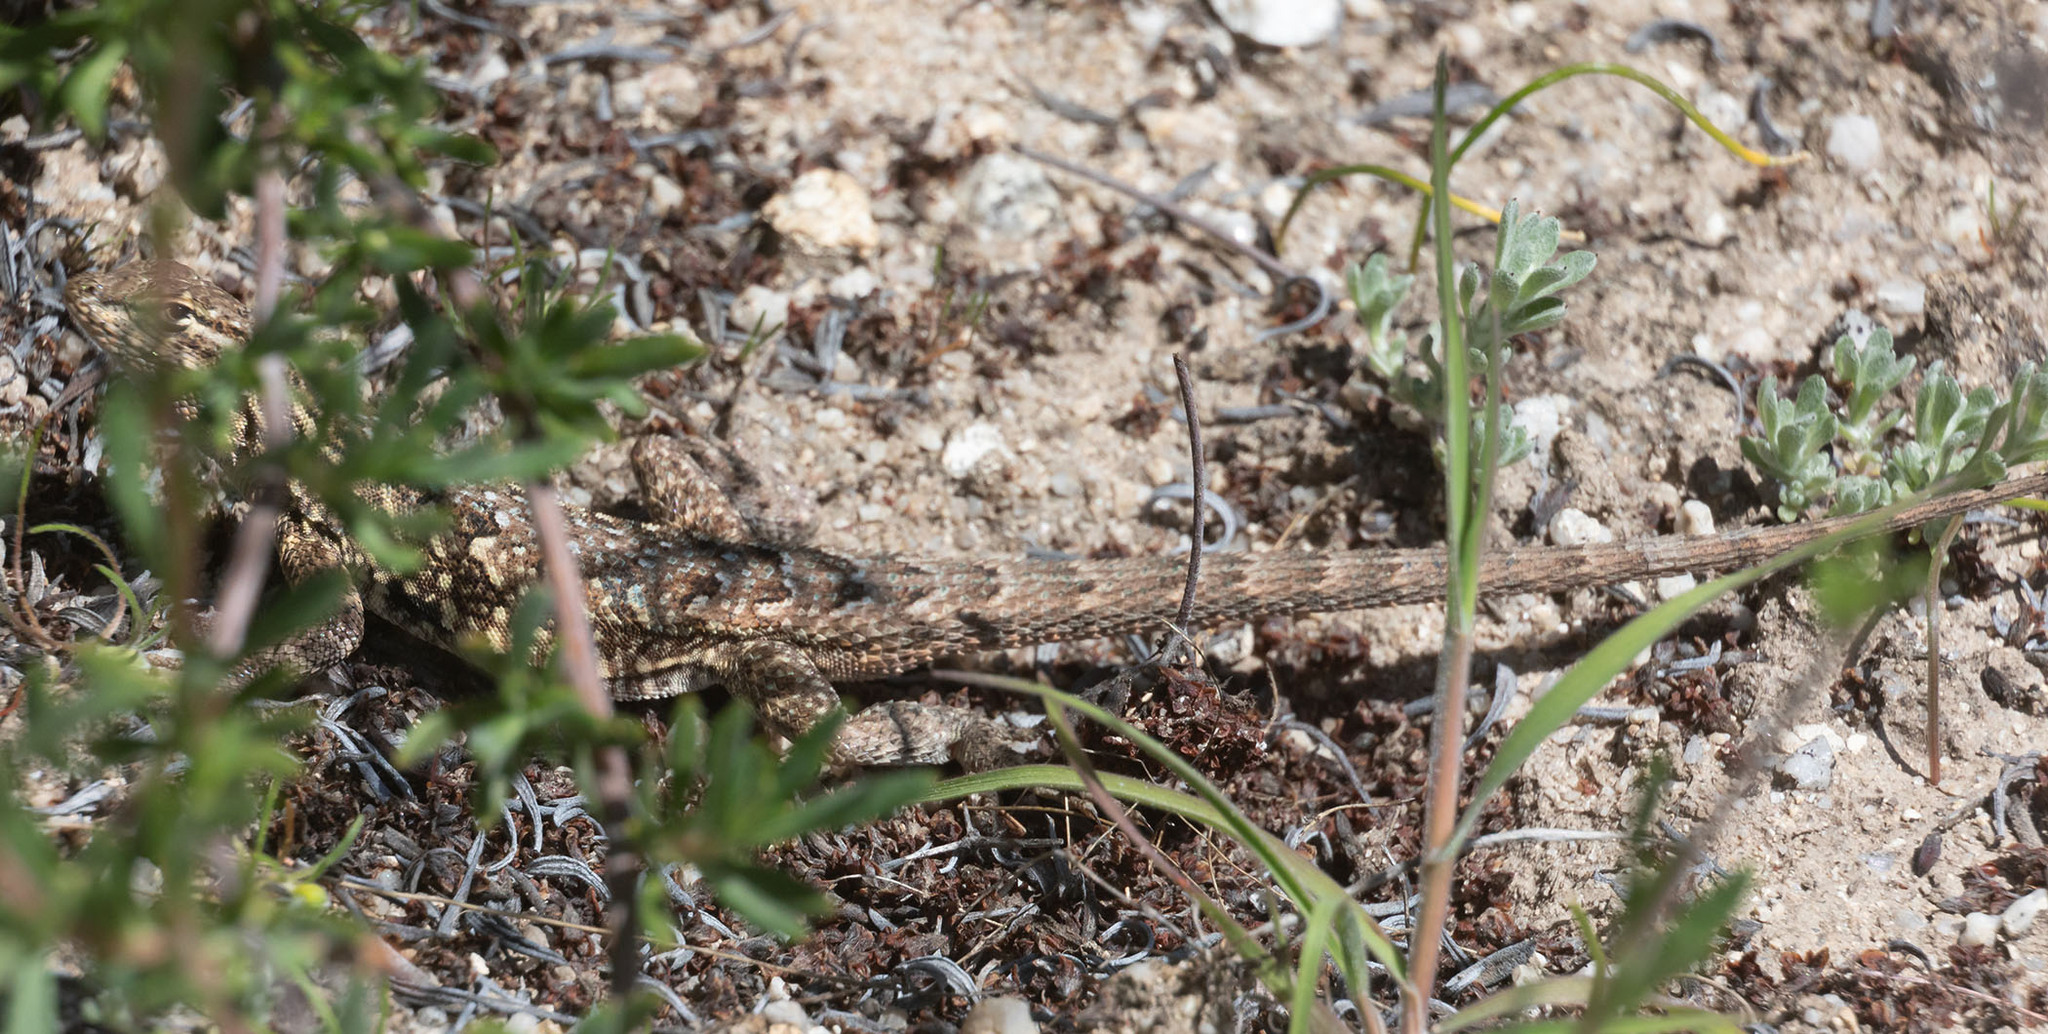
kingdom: Animalia
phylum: Chordata
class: Squamata
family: Phrynosomatidae
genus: Uta
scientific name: Uta stansburiana
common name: Side-blotched lizard
